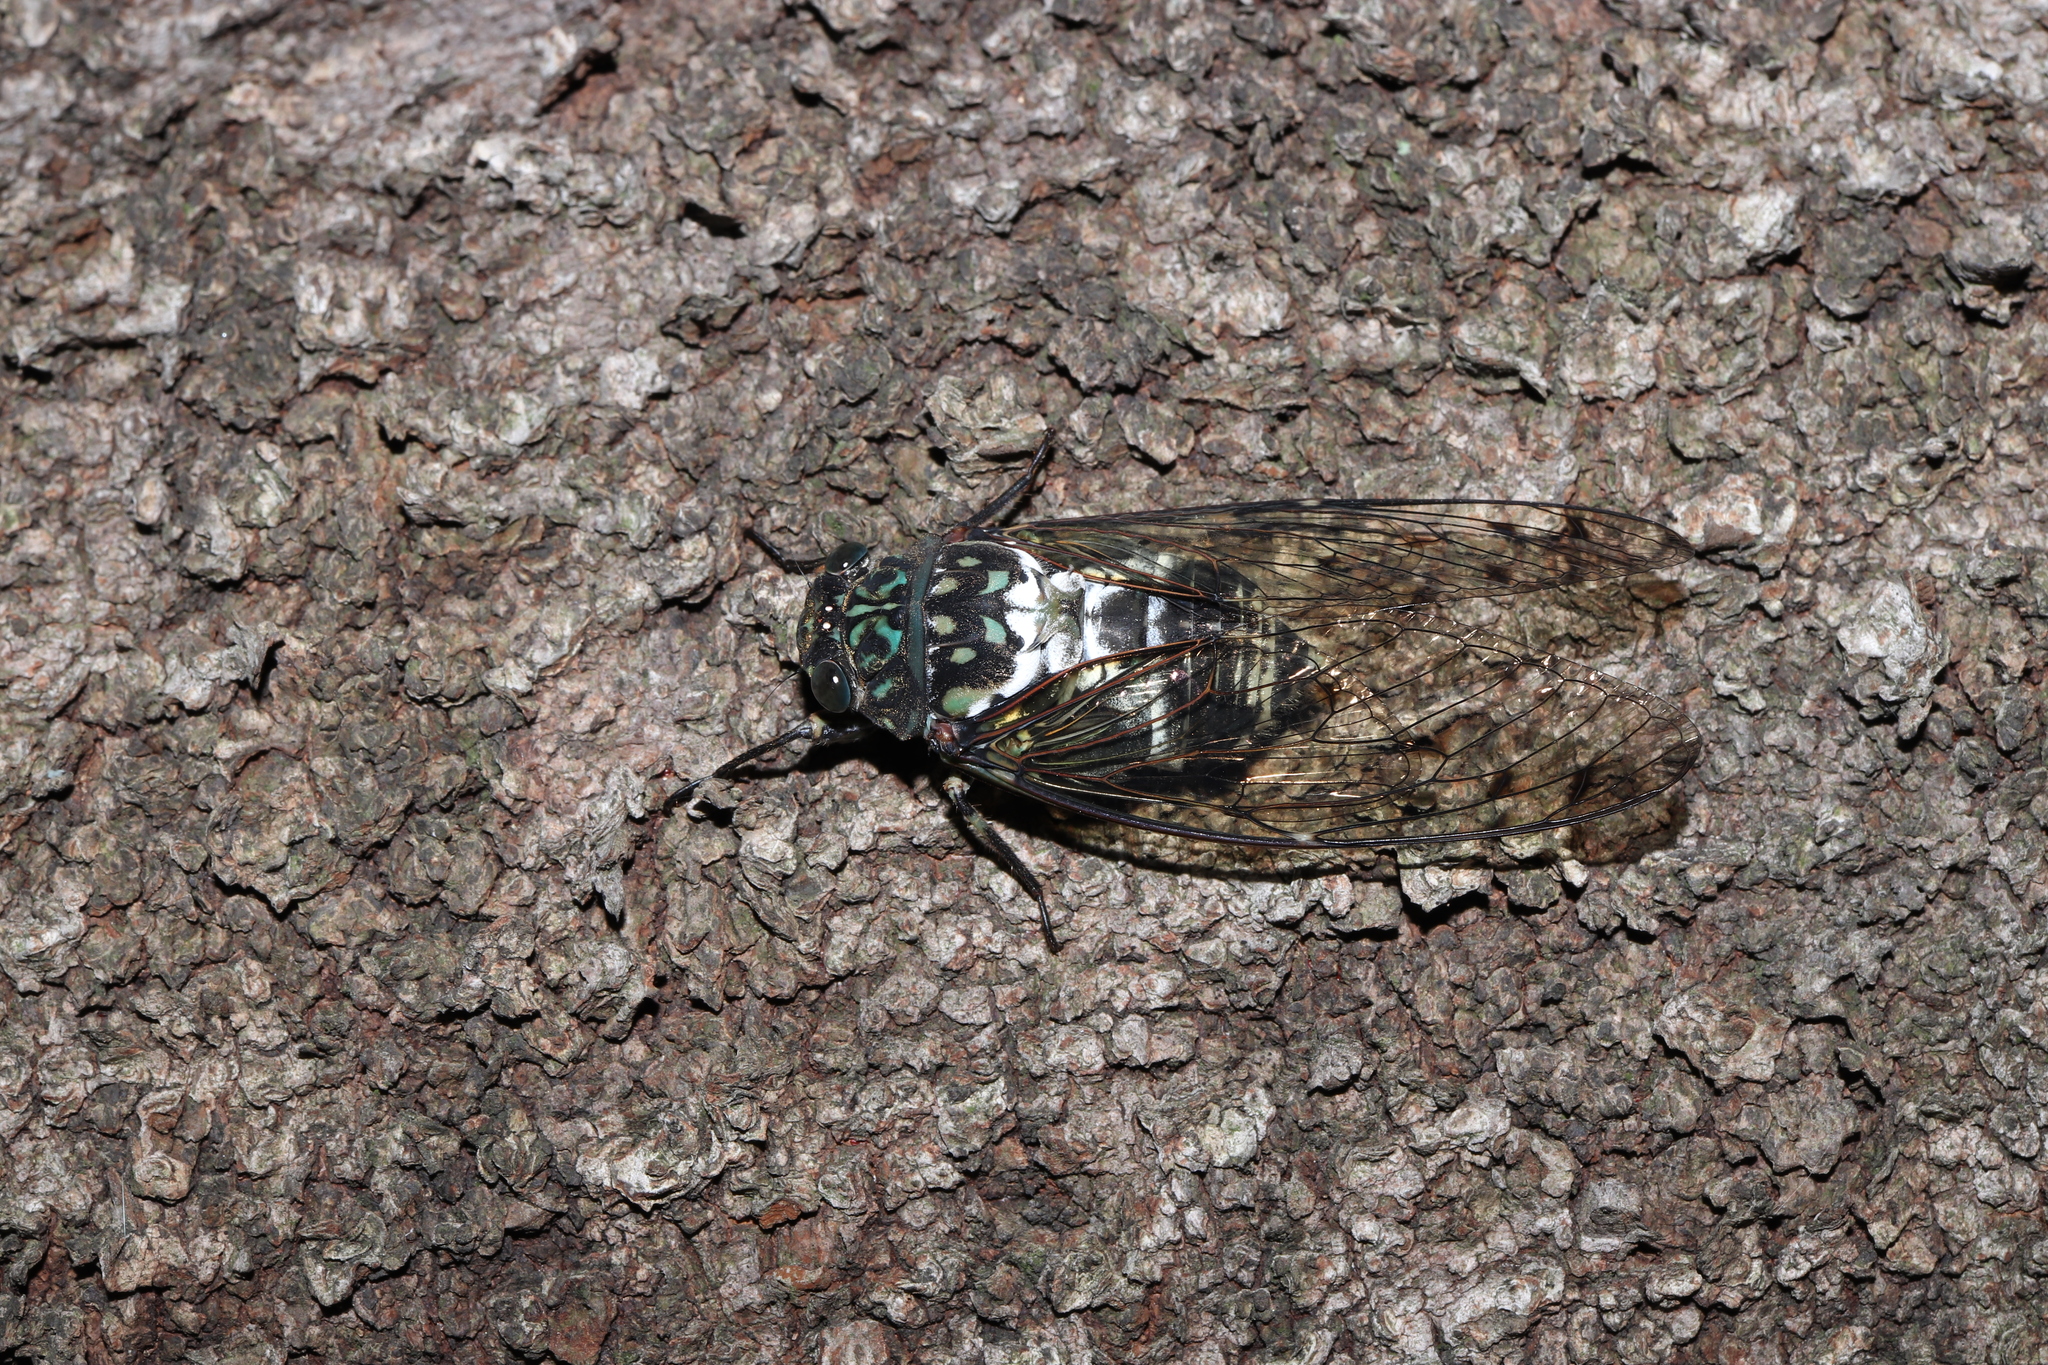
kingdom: Animalia
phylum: Arthropoda
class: Insecta
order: Hemiptera
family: Cicadidae
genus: Hyalessa
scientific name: Hyalessa maculaticollis
